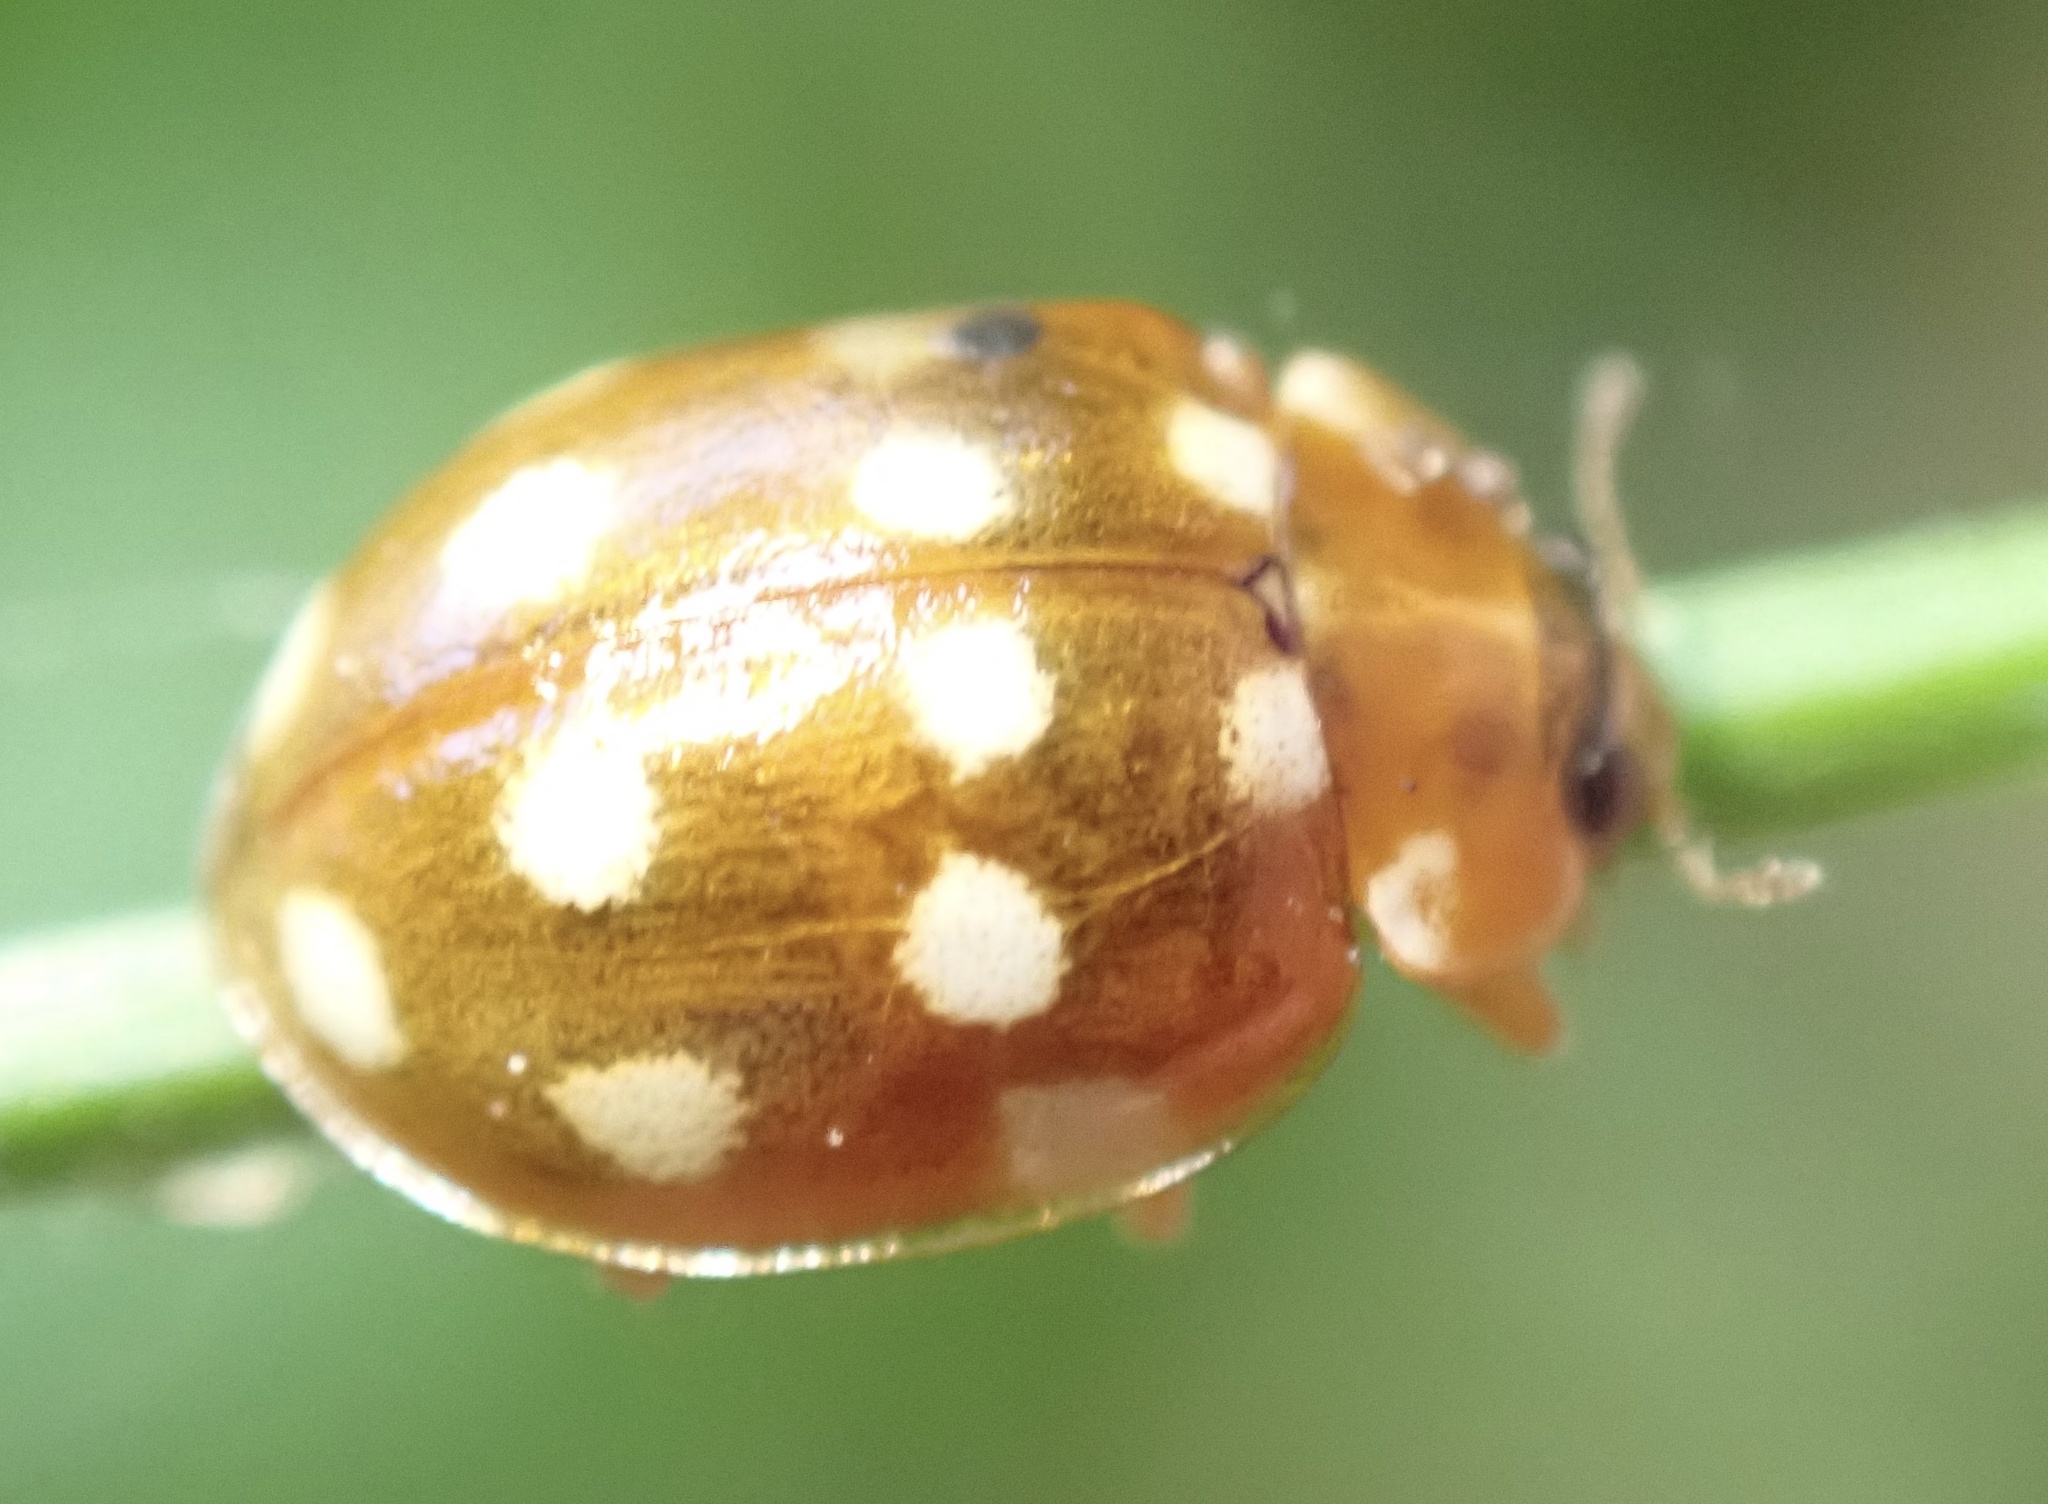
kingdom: Animalia
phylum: Arthropoda
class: Insecta
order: Coleoptera
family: Coccinellidae
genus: Calvia
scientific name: Calvia quatuordecimguttata
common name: Cream-spot ladybird
